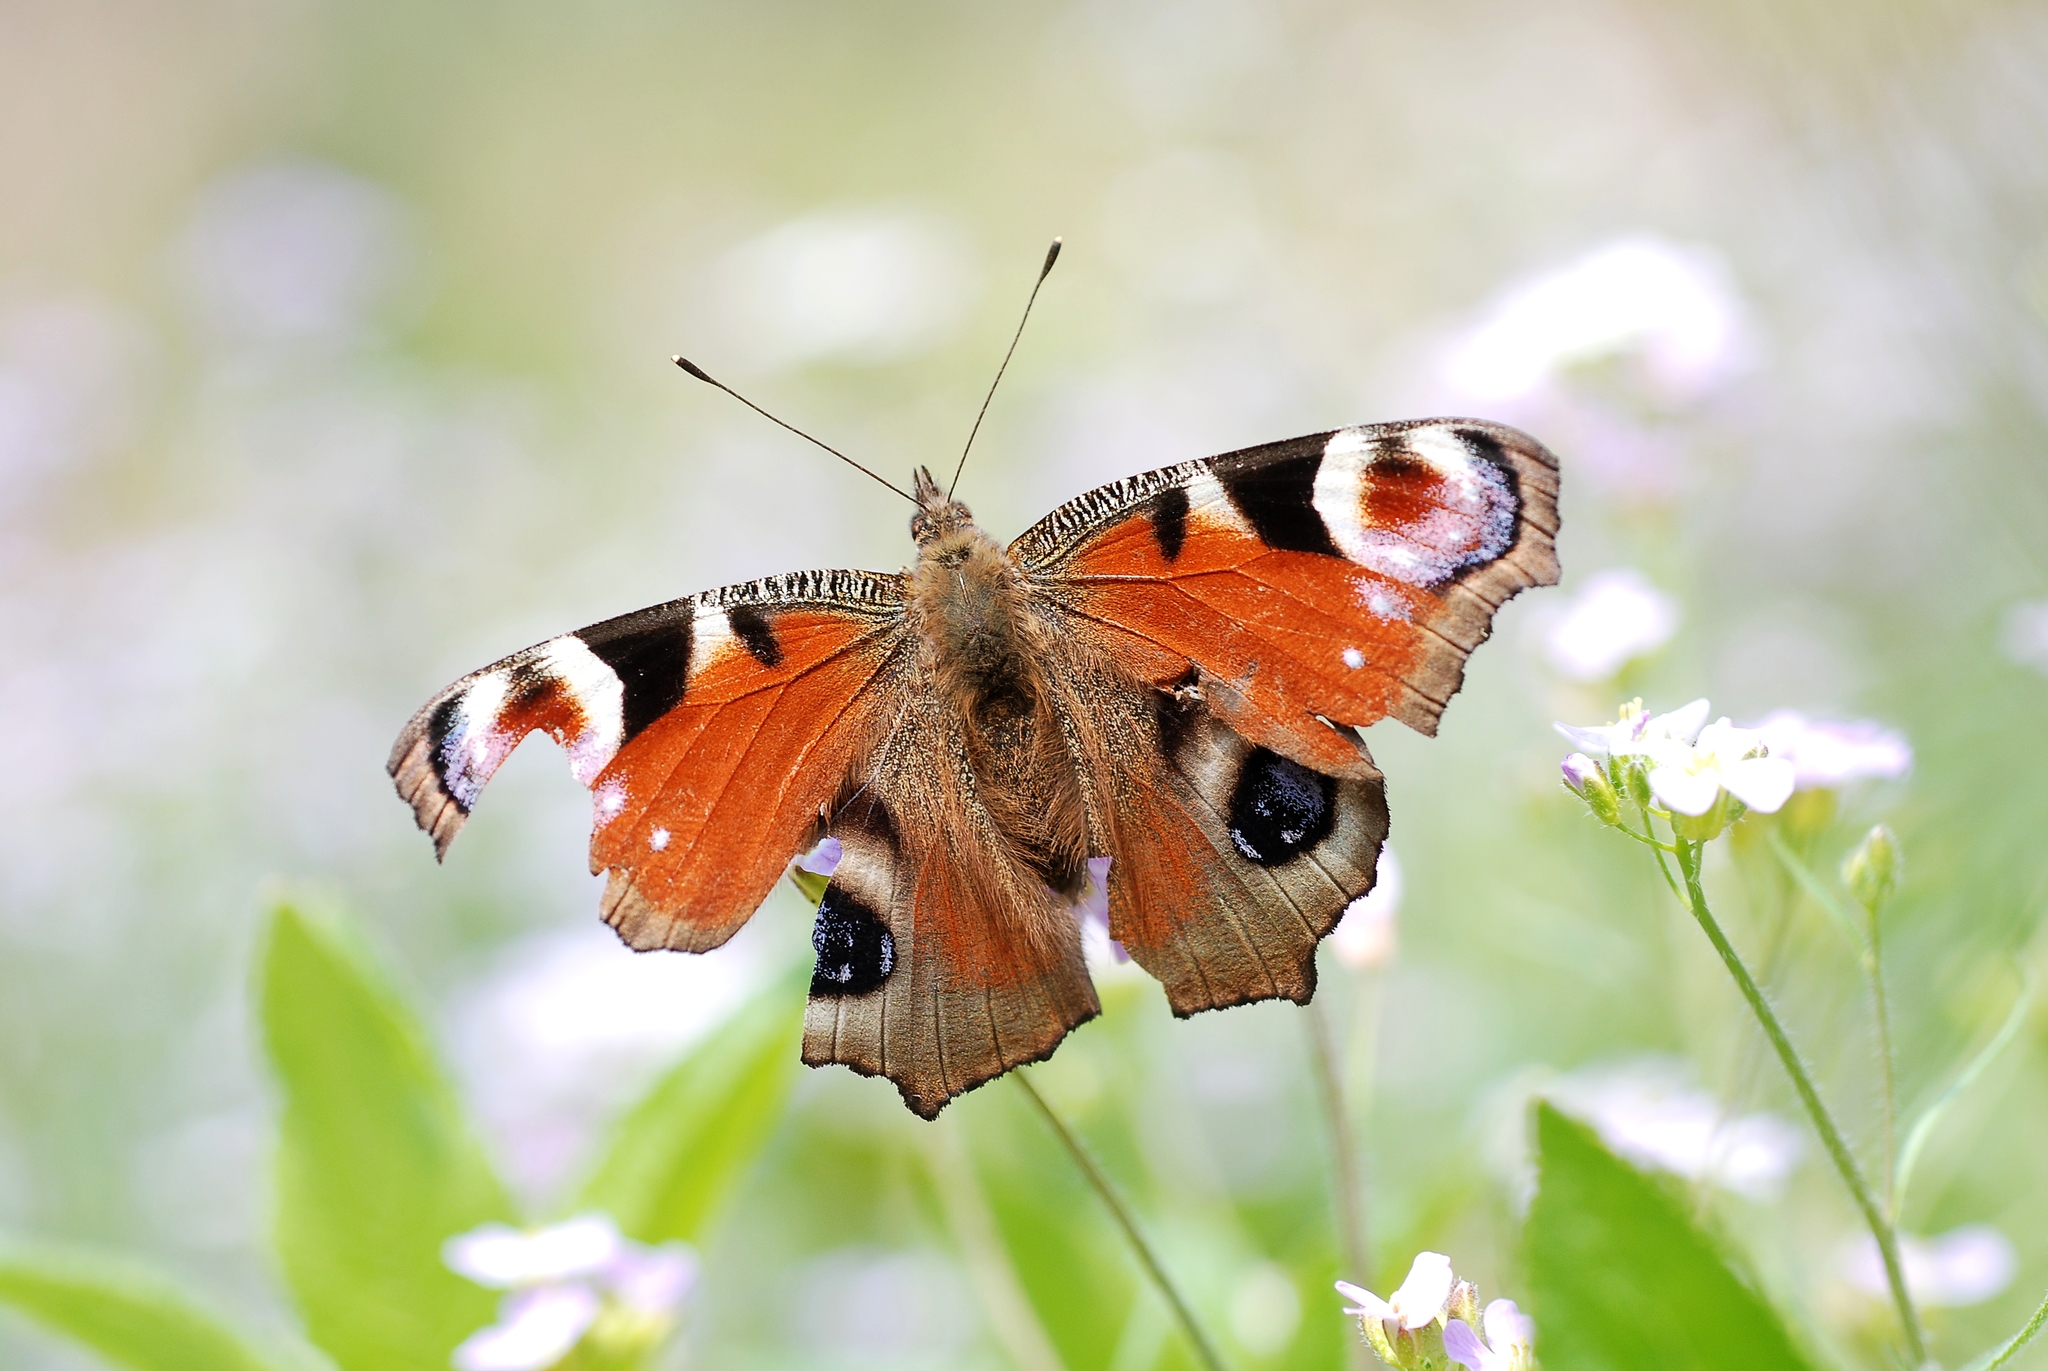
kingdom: Animalia
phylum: Arthropoda
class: Insecta
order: Lepidoptera
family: Nymphalidae
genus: Aglais
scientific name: Aglais io
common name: Peacock
